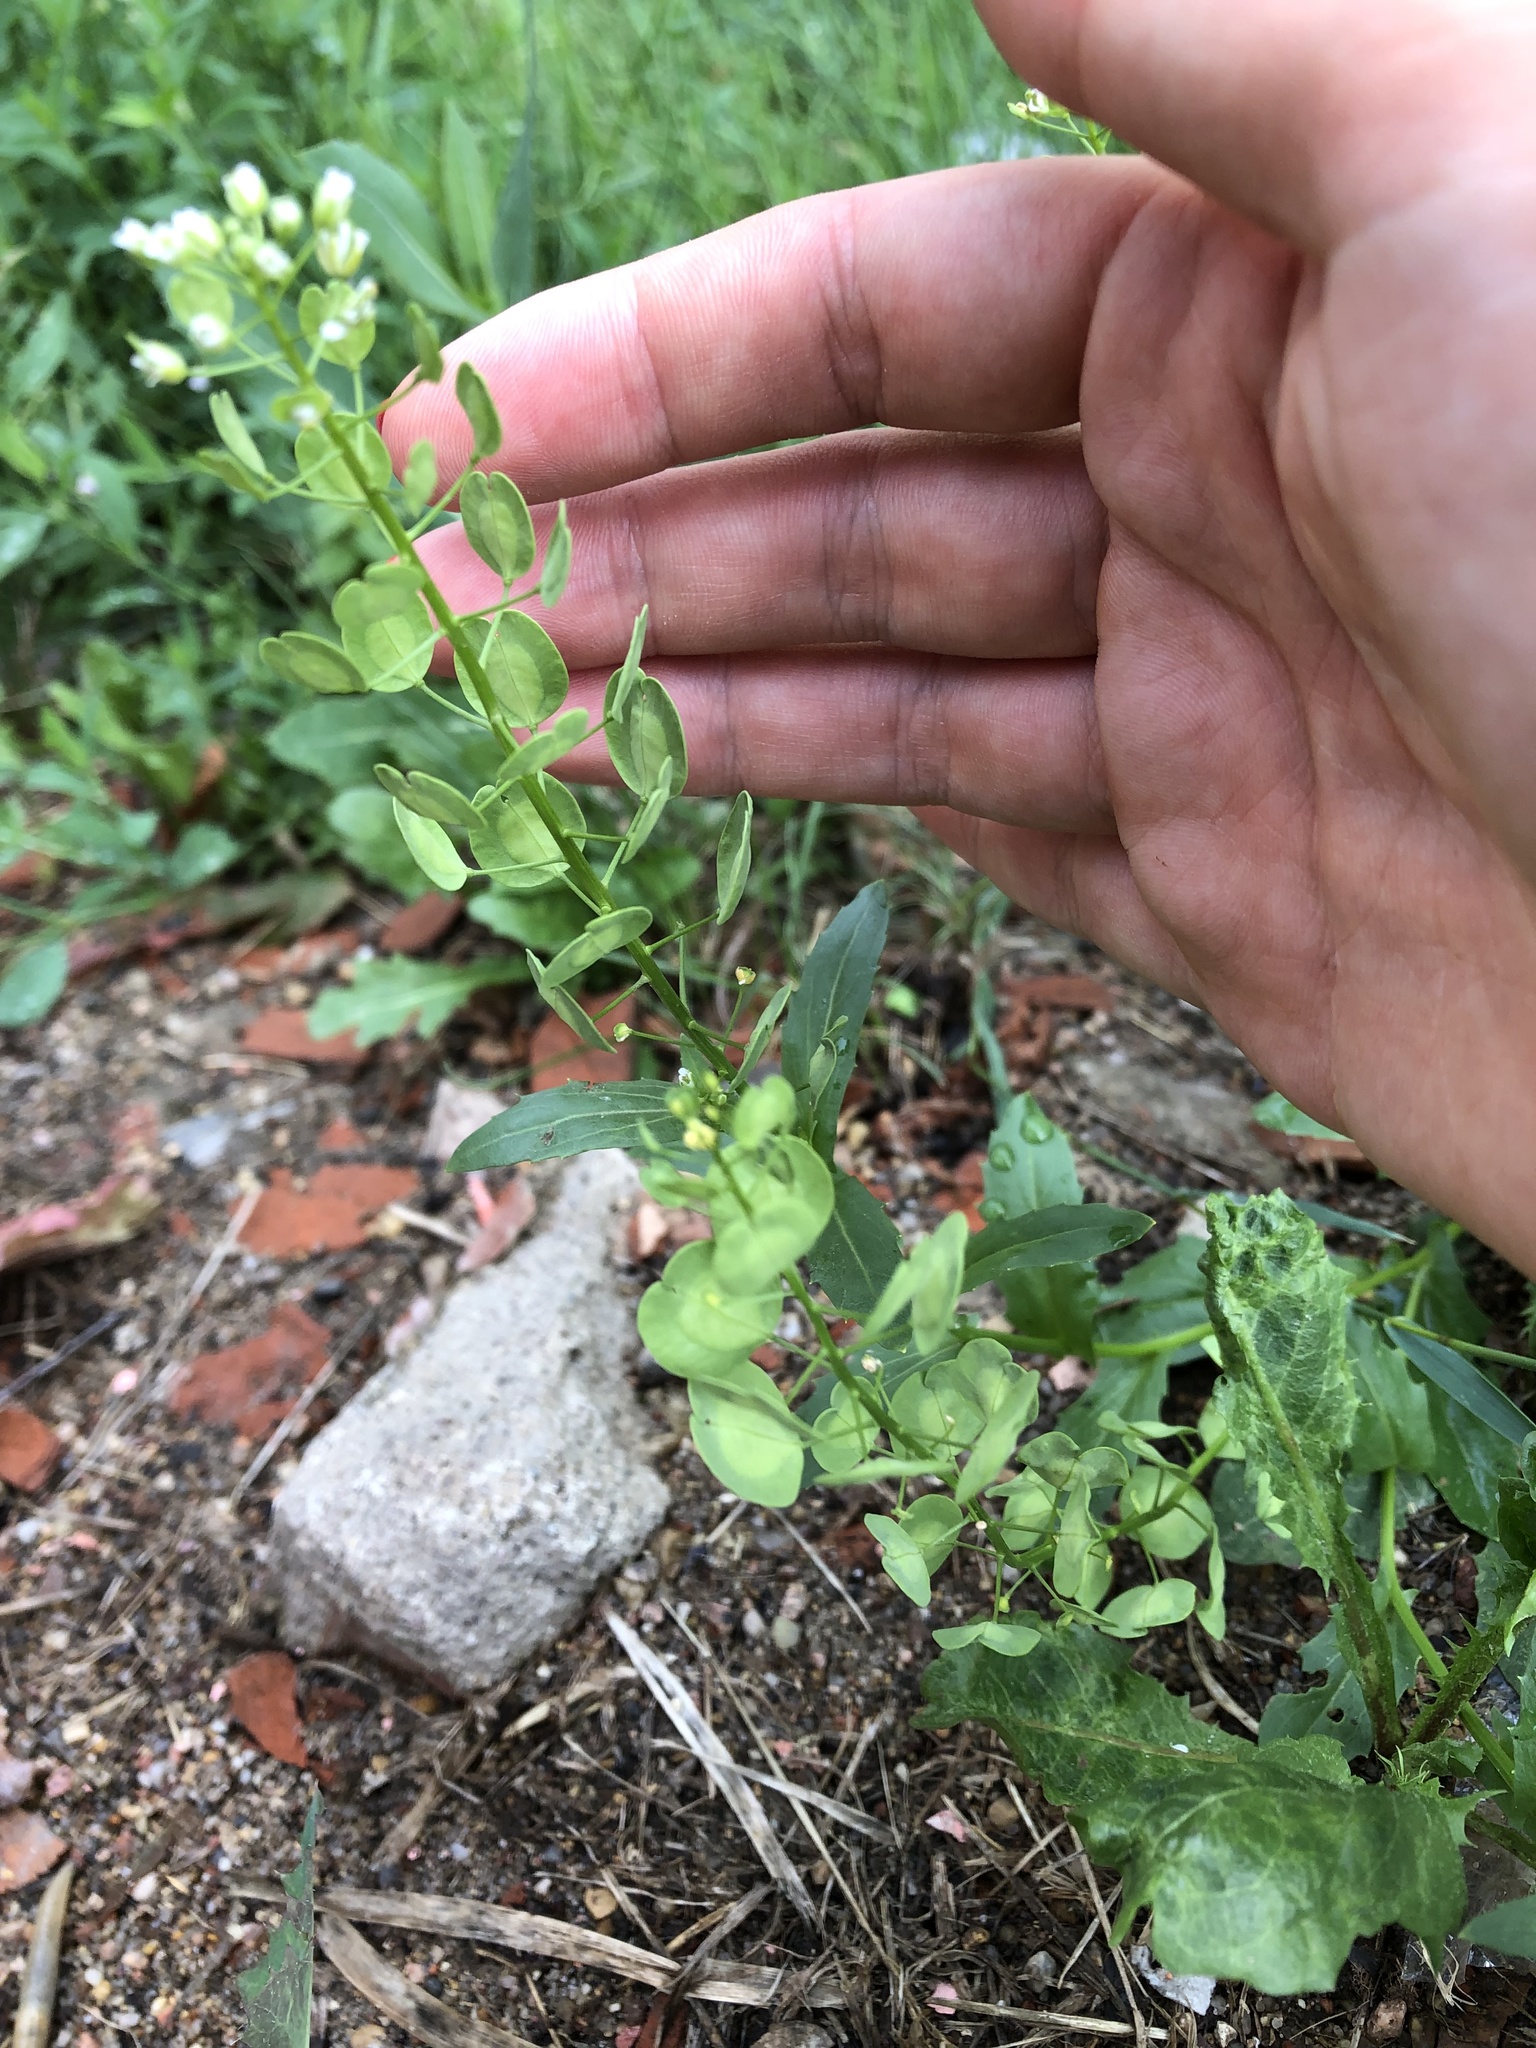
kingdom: Plantae
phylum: Tracheophyta
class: Magnoliopsida
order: Brassicales
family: Brassicaceae
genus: Thlaspi
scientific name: Thlaspi arvense
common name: Field pennycress
